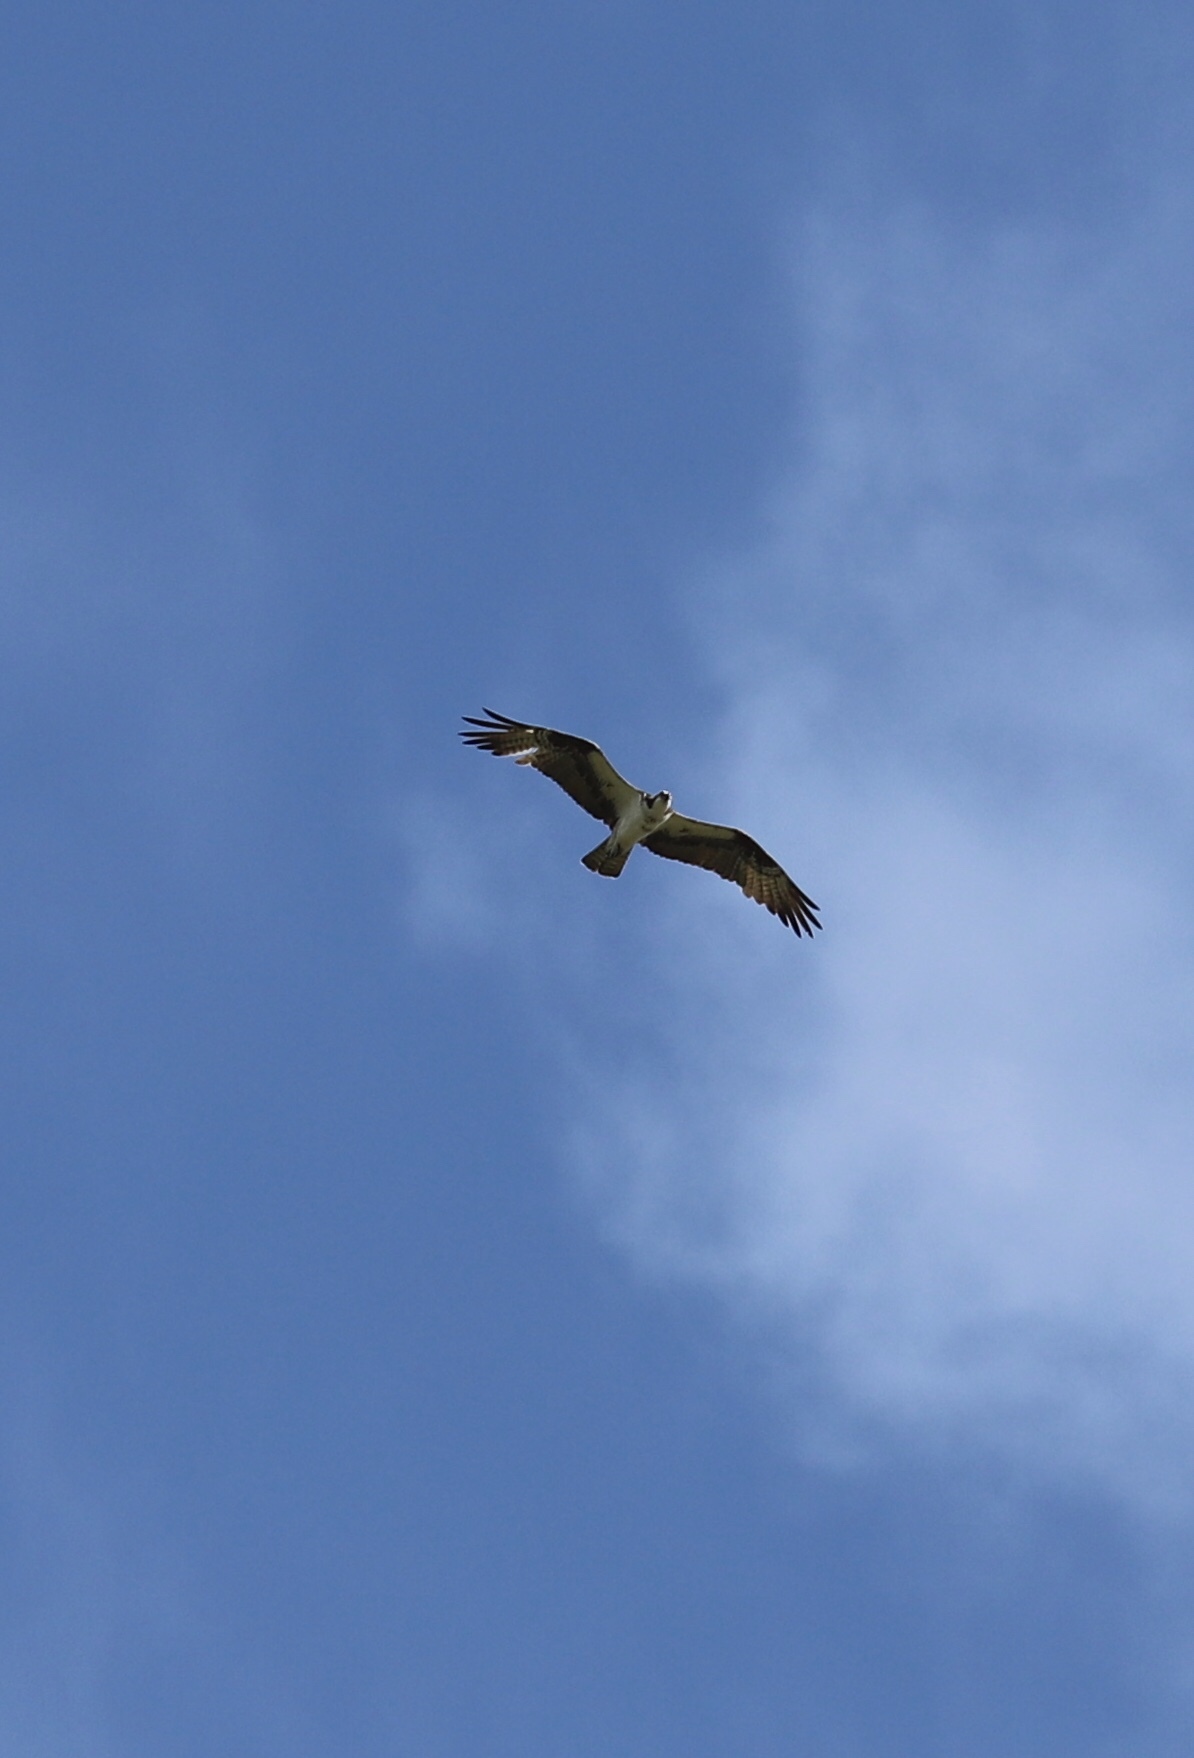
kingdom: Animalia
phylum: Chordata
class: Aves
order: Accipitriformes
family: Pandionidae
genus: Pandion
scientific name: Pandion haliaetus
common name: Osprey
